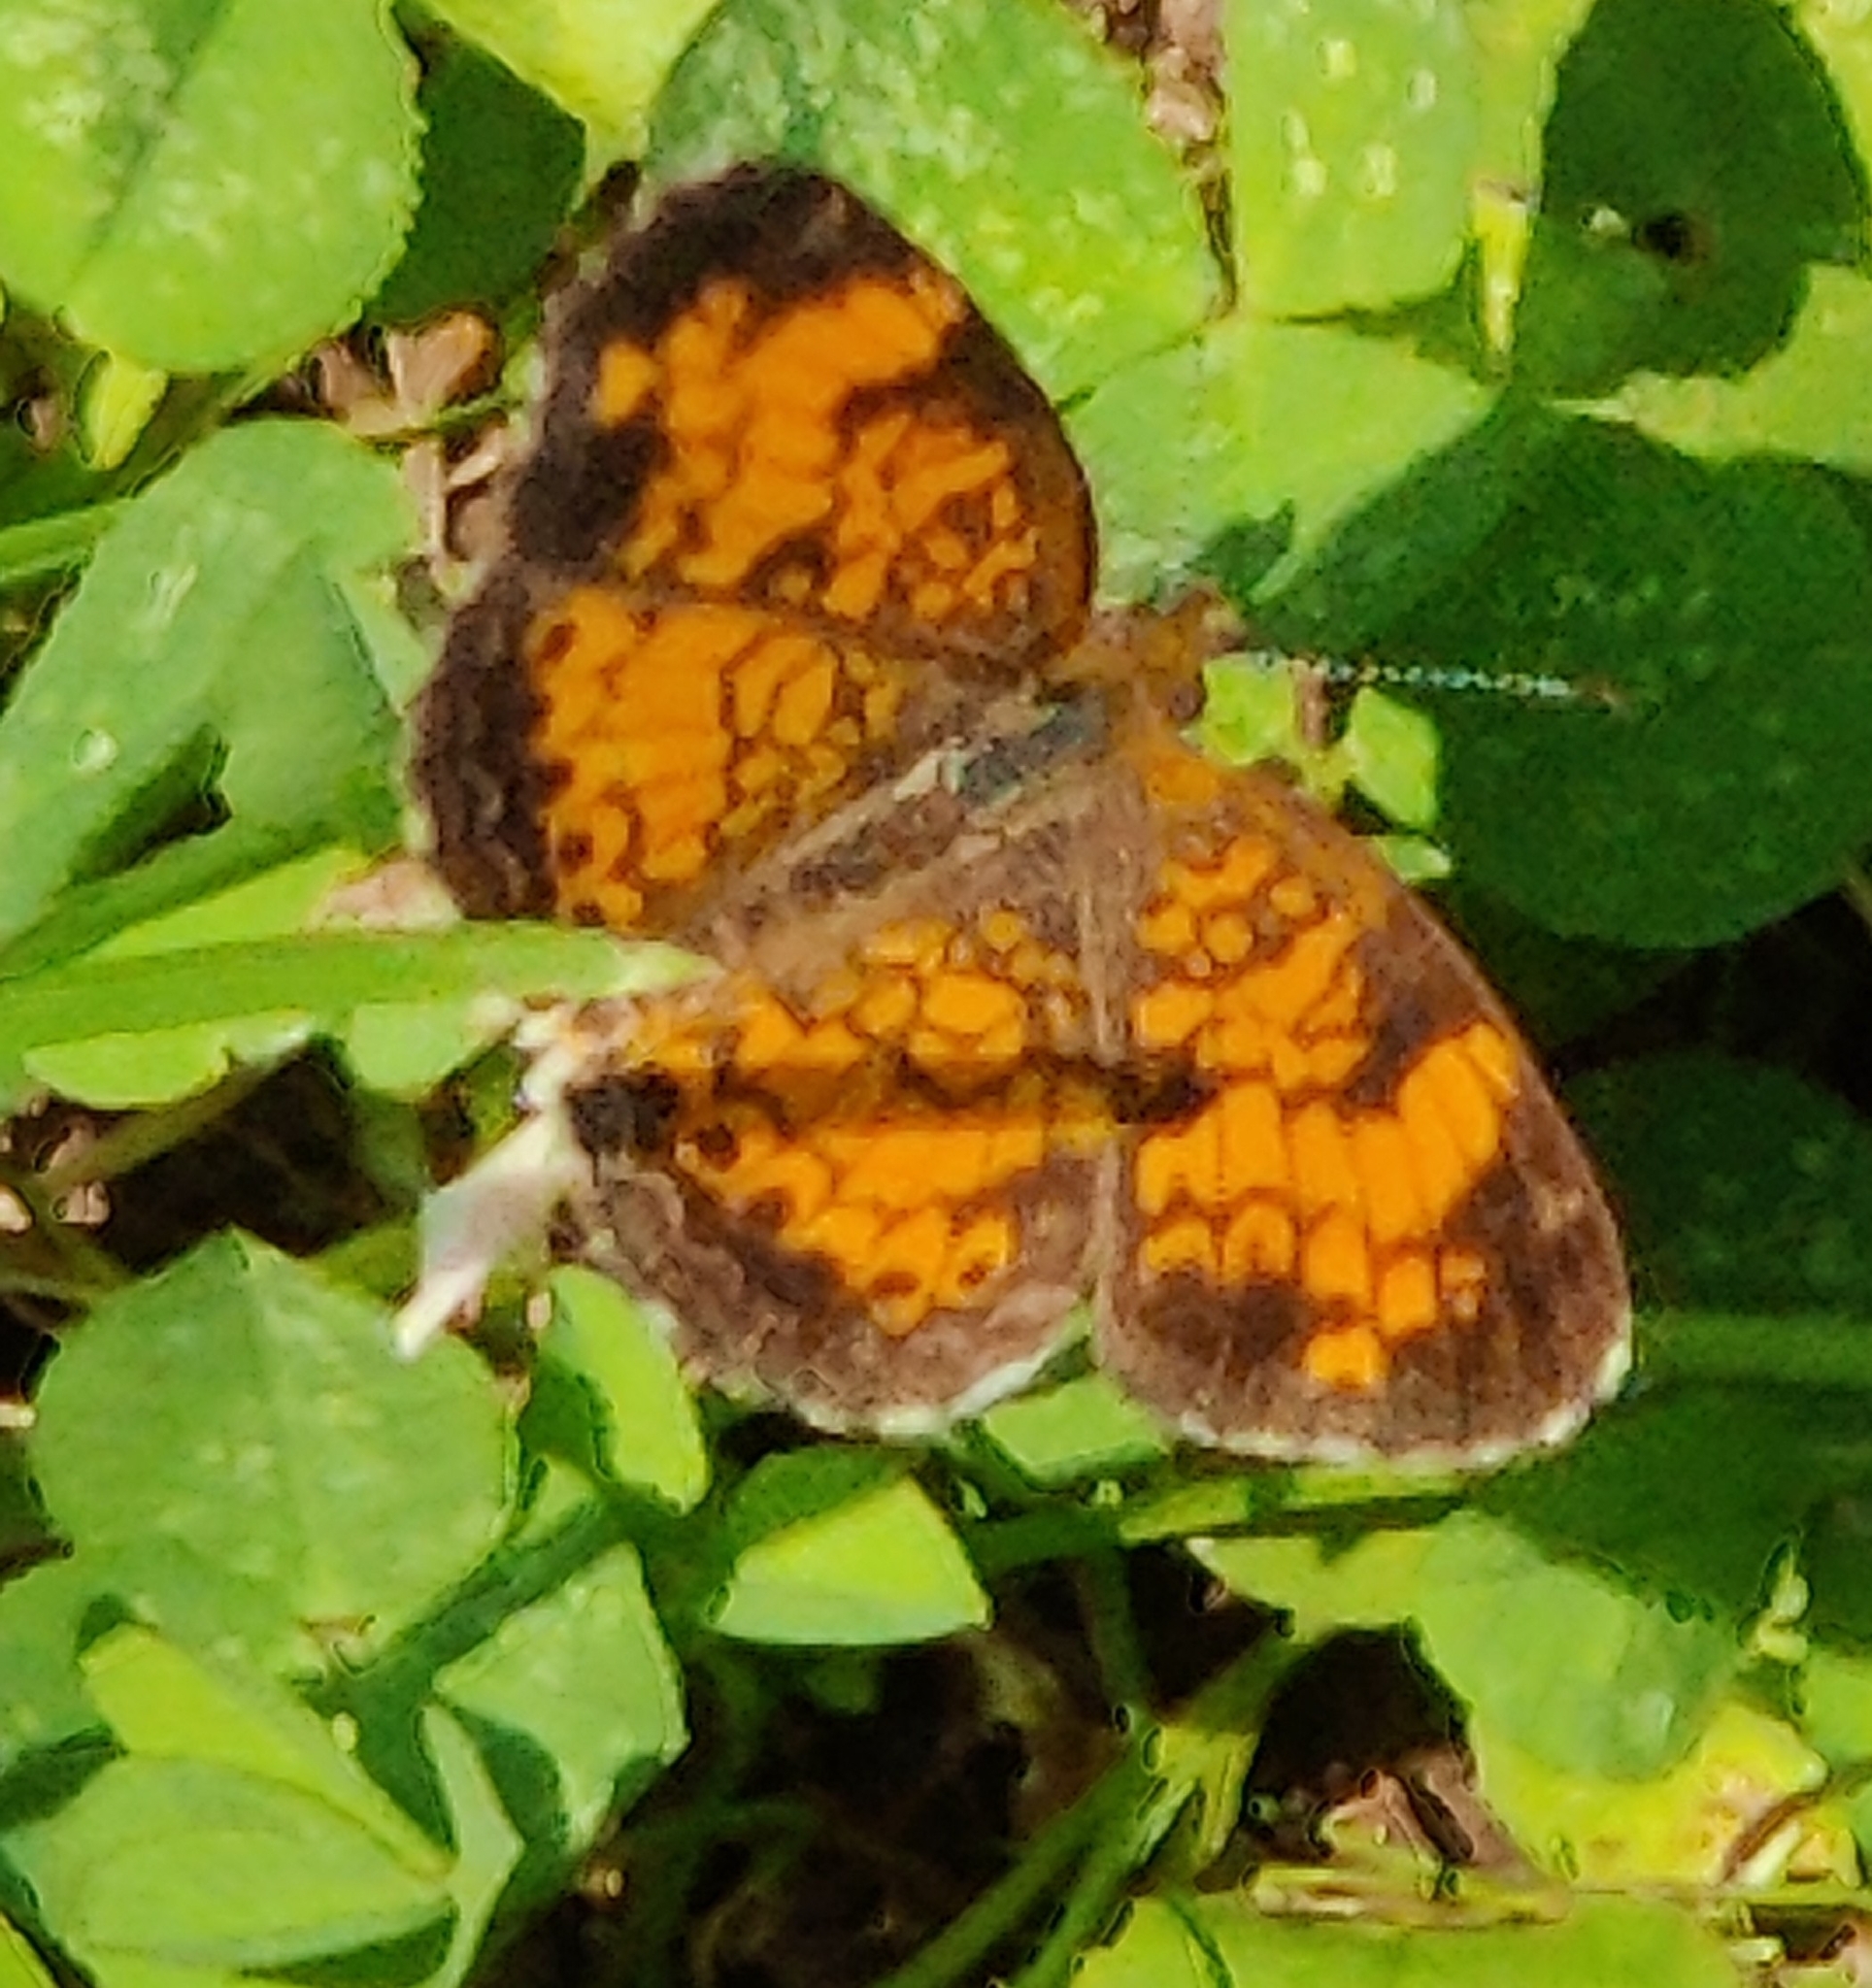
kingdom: Animalia
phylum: Arthropoda
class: Insecta
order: Lepidoptera
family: Nymphalidae
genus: Phyciodes
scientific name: Phyciodes tharos
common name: Pearl crescent
